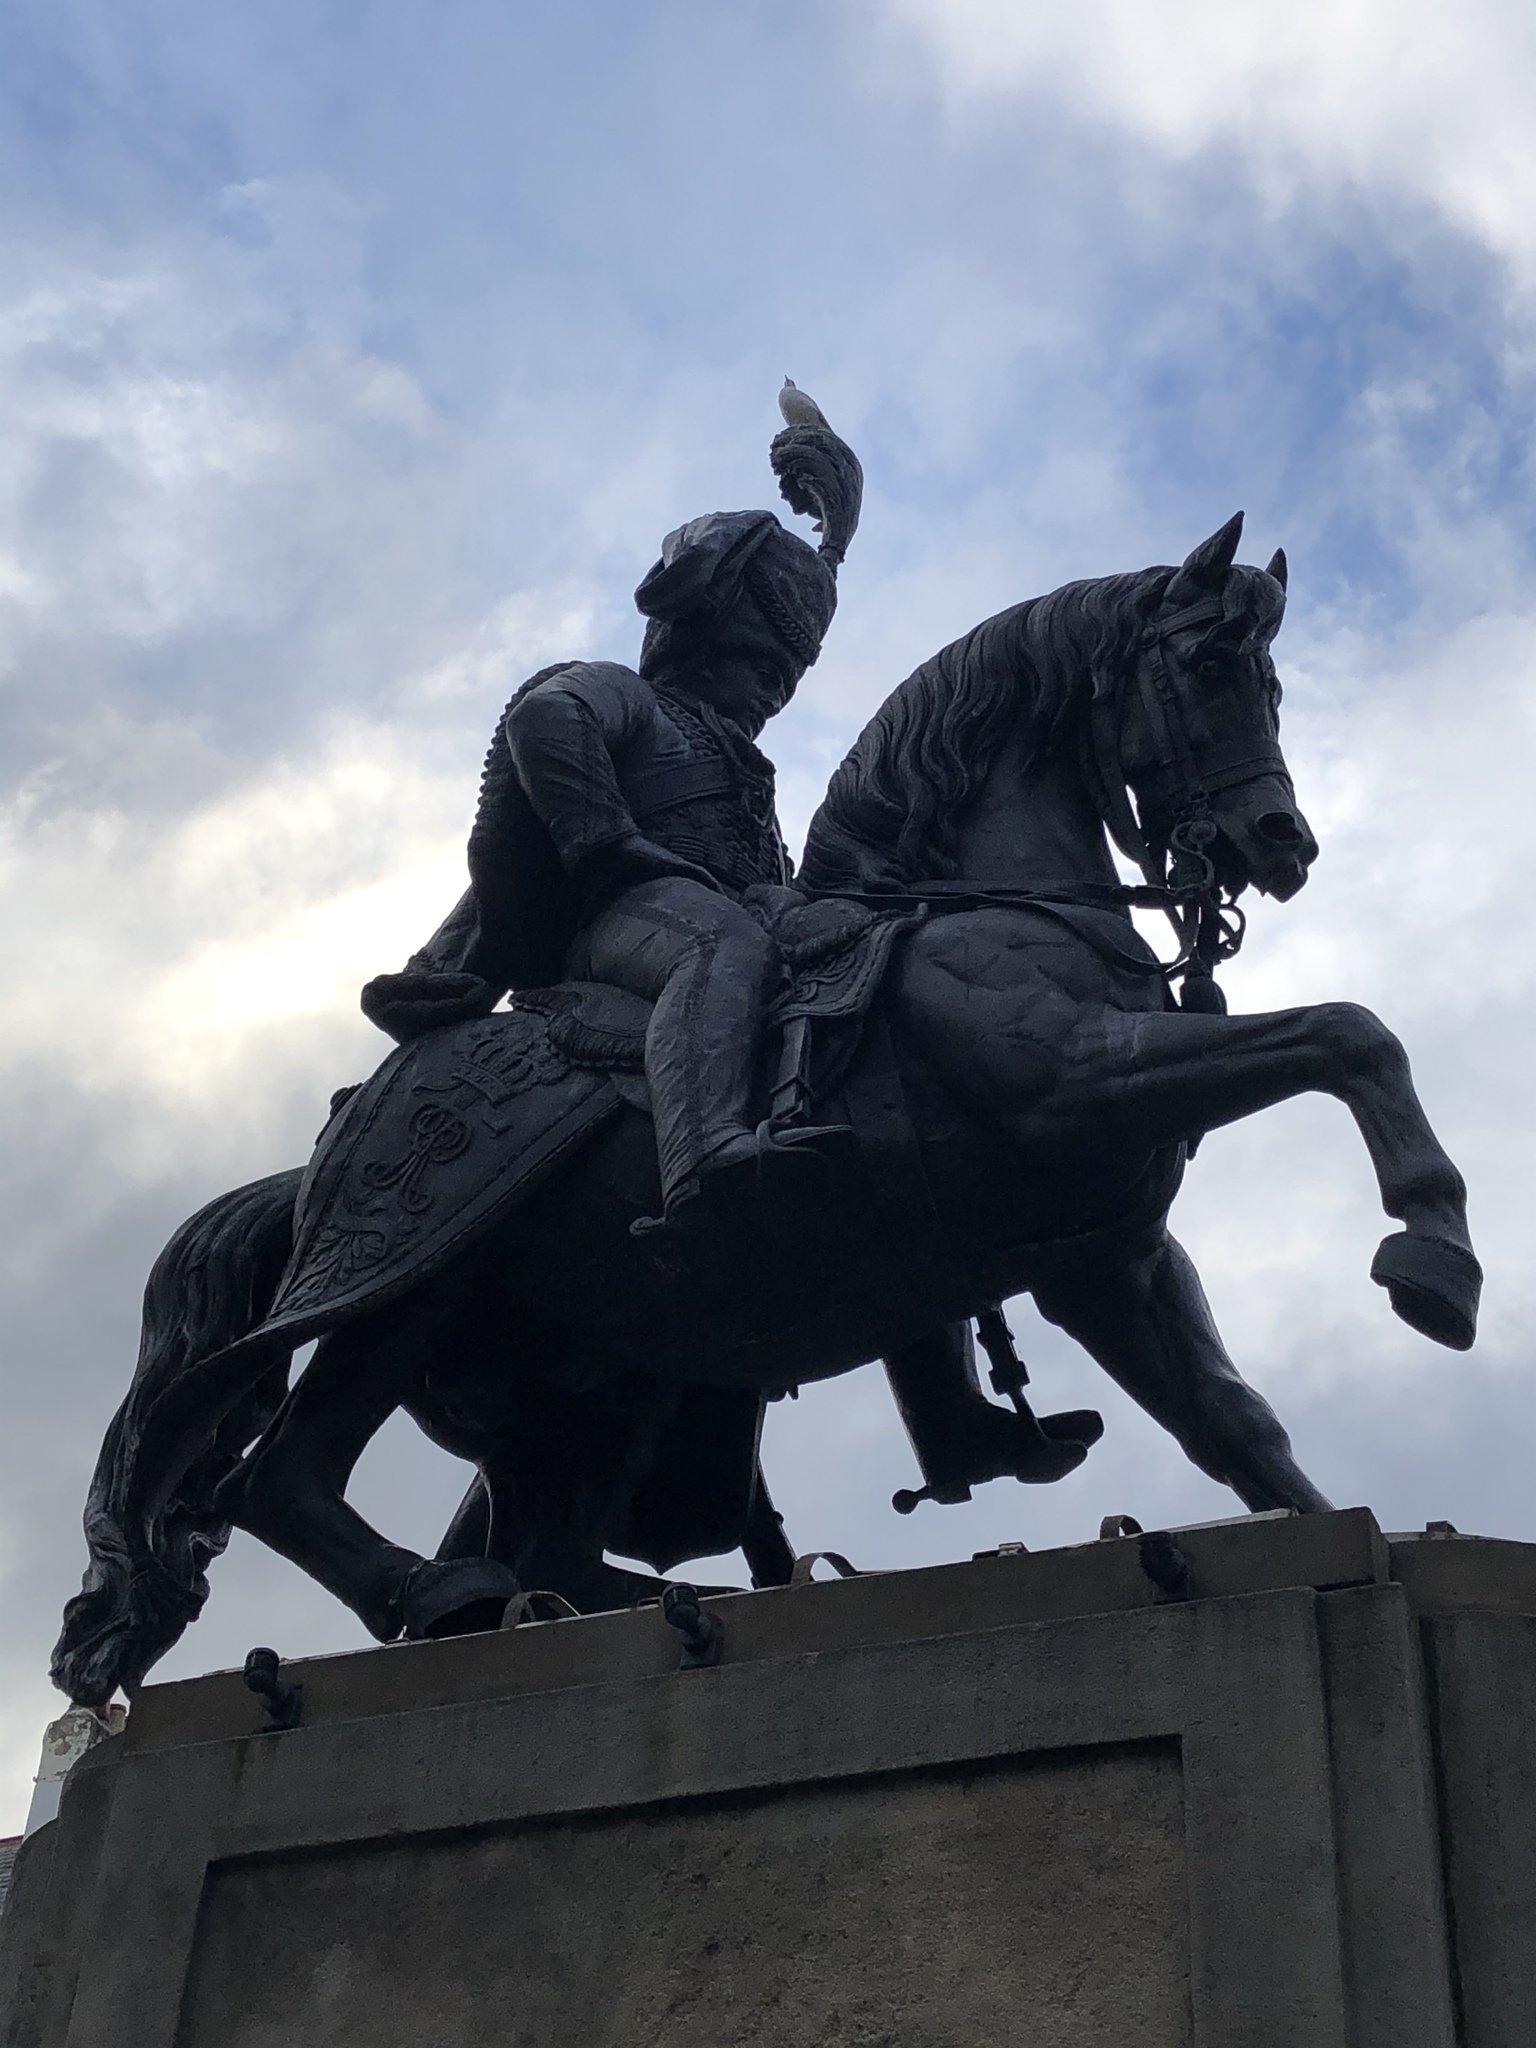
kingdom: Animalia
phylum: Chordata
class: Aves
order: Charadriiformes
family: Laridae
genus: Chroicocephalus
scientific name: Chroicocephalus ridibundus
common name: Black-headed gull
